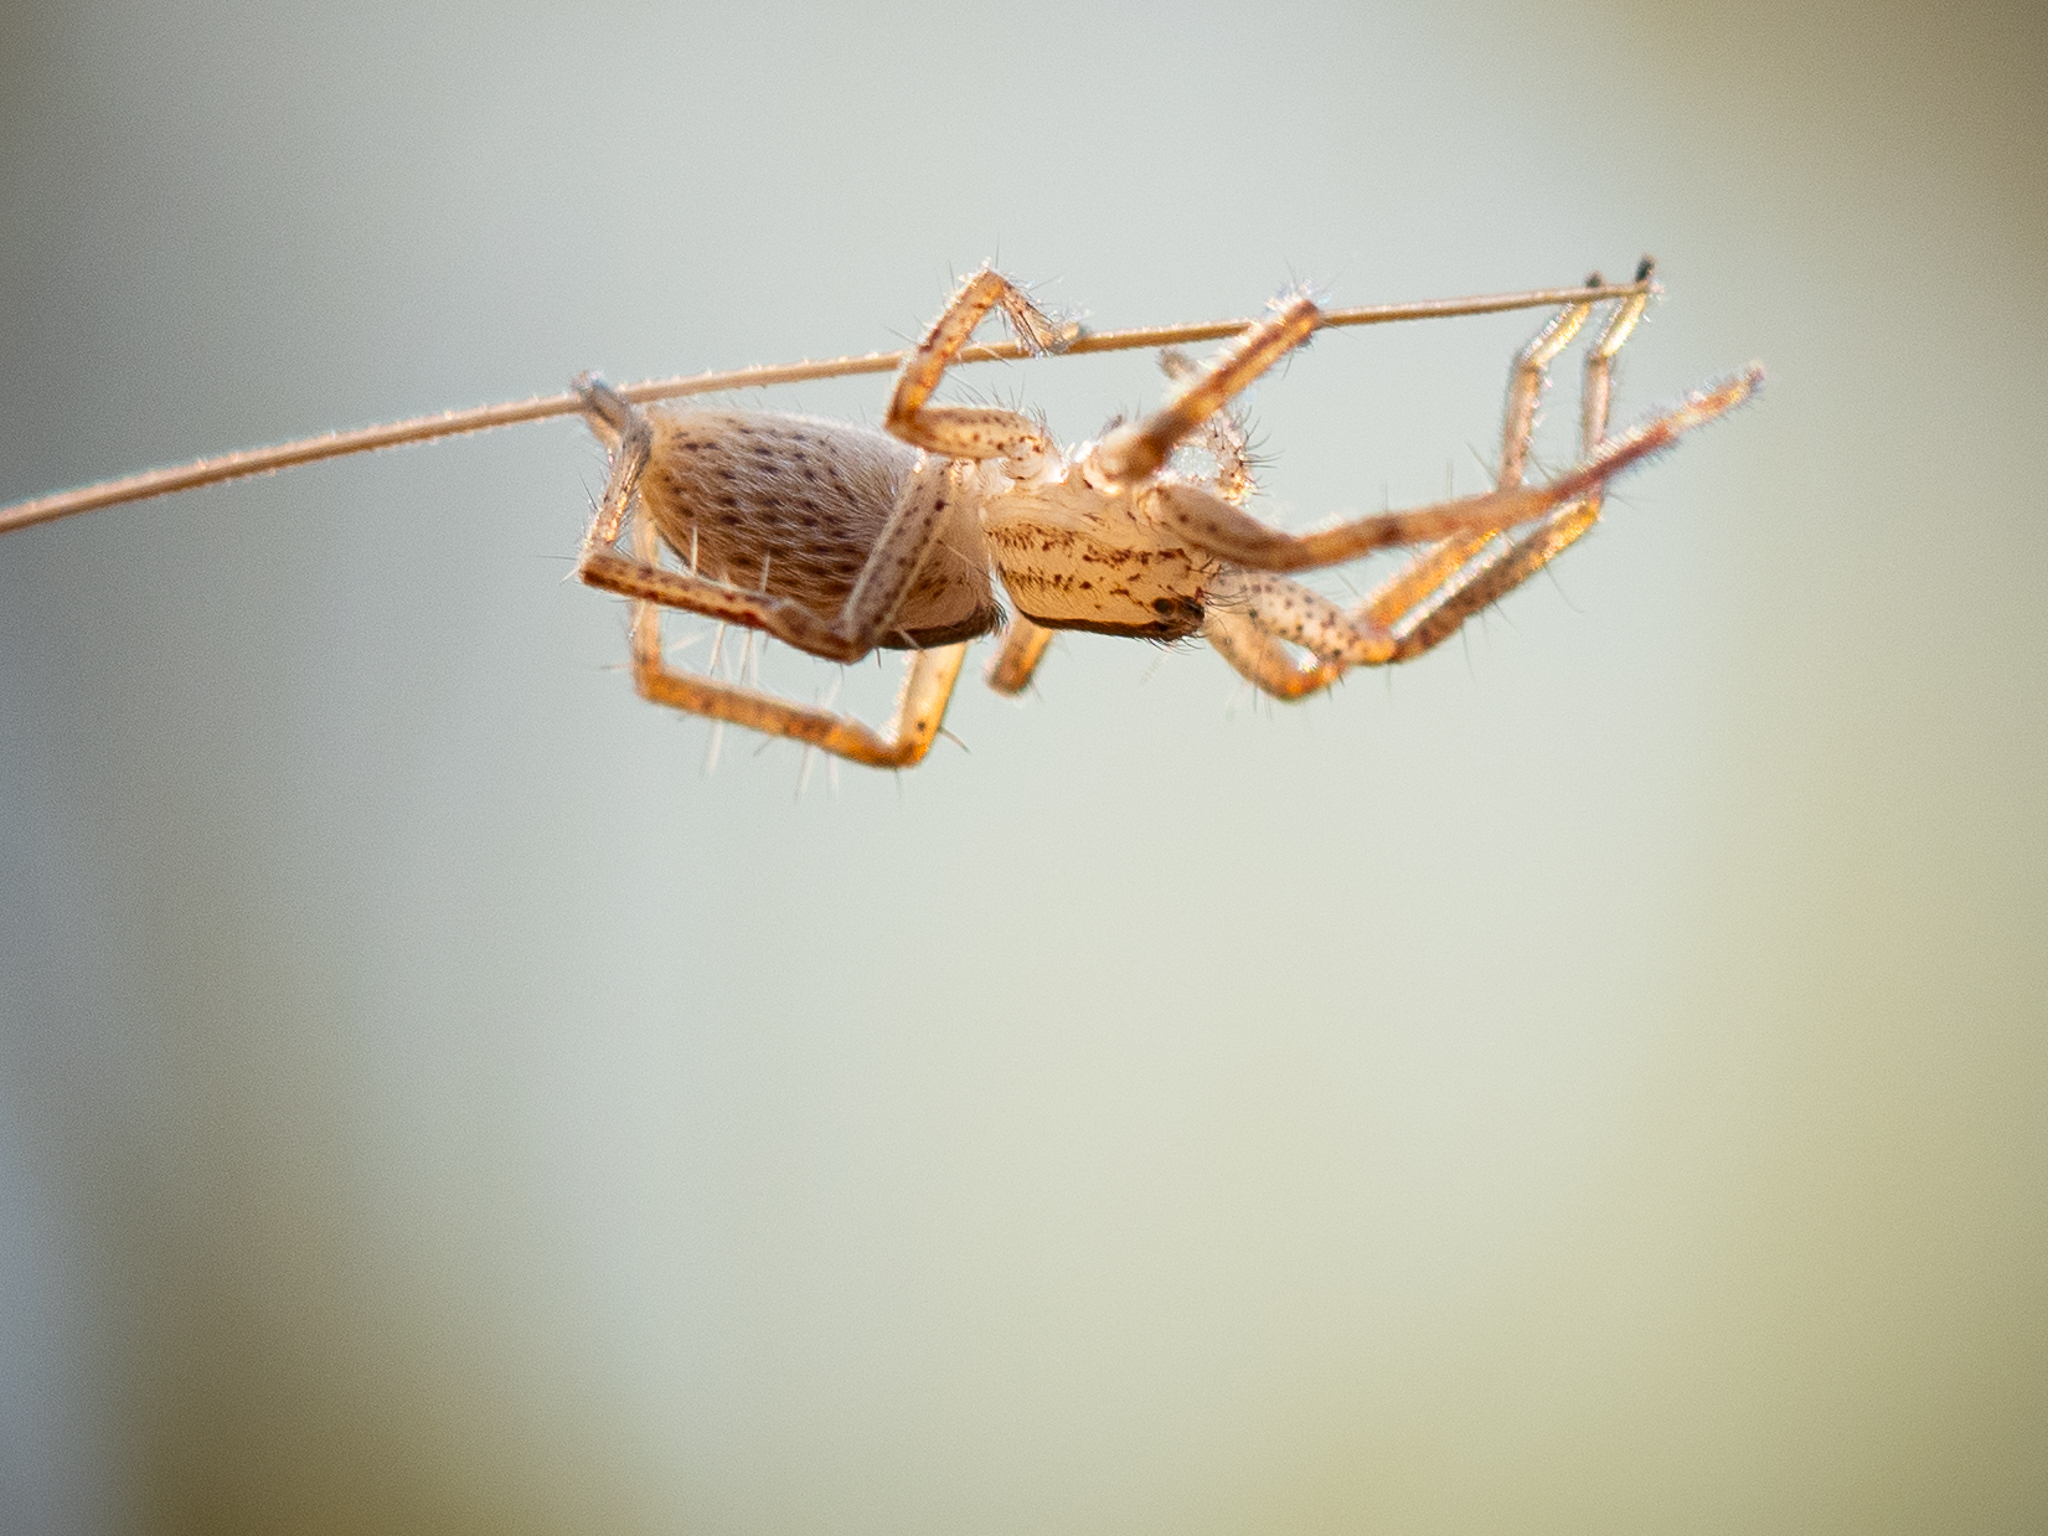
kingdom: Animalia
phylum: Arthropoda
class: Arachnida
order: Araneae
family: Sparassidae
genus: Micrommata
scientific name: Micrommata ligurina
